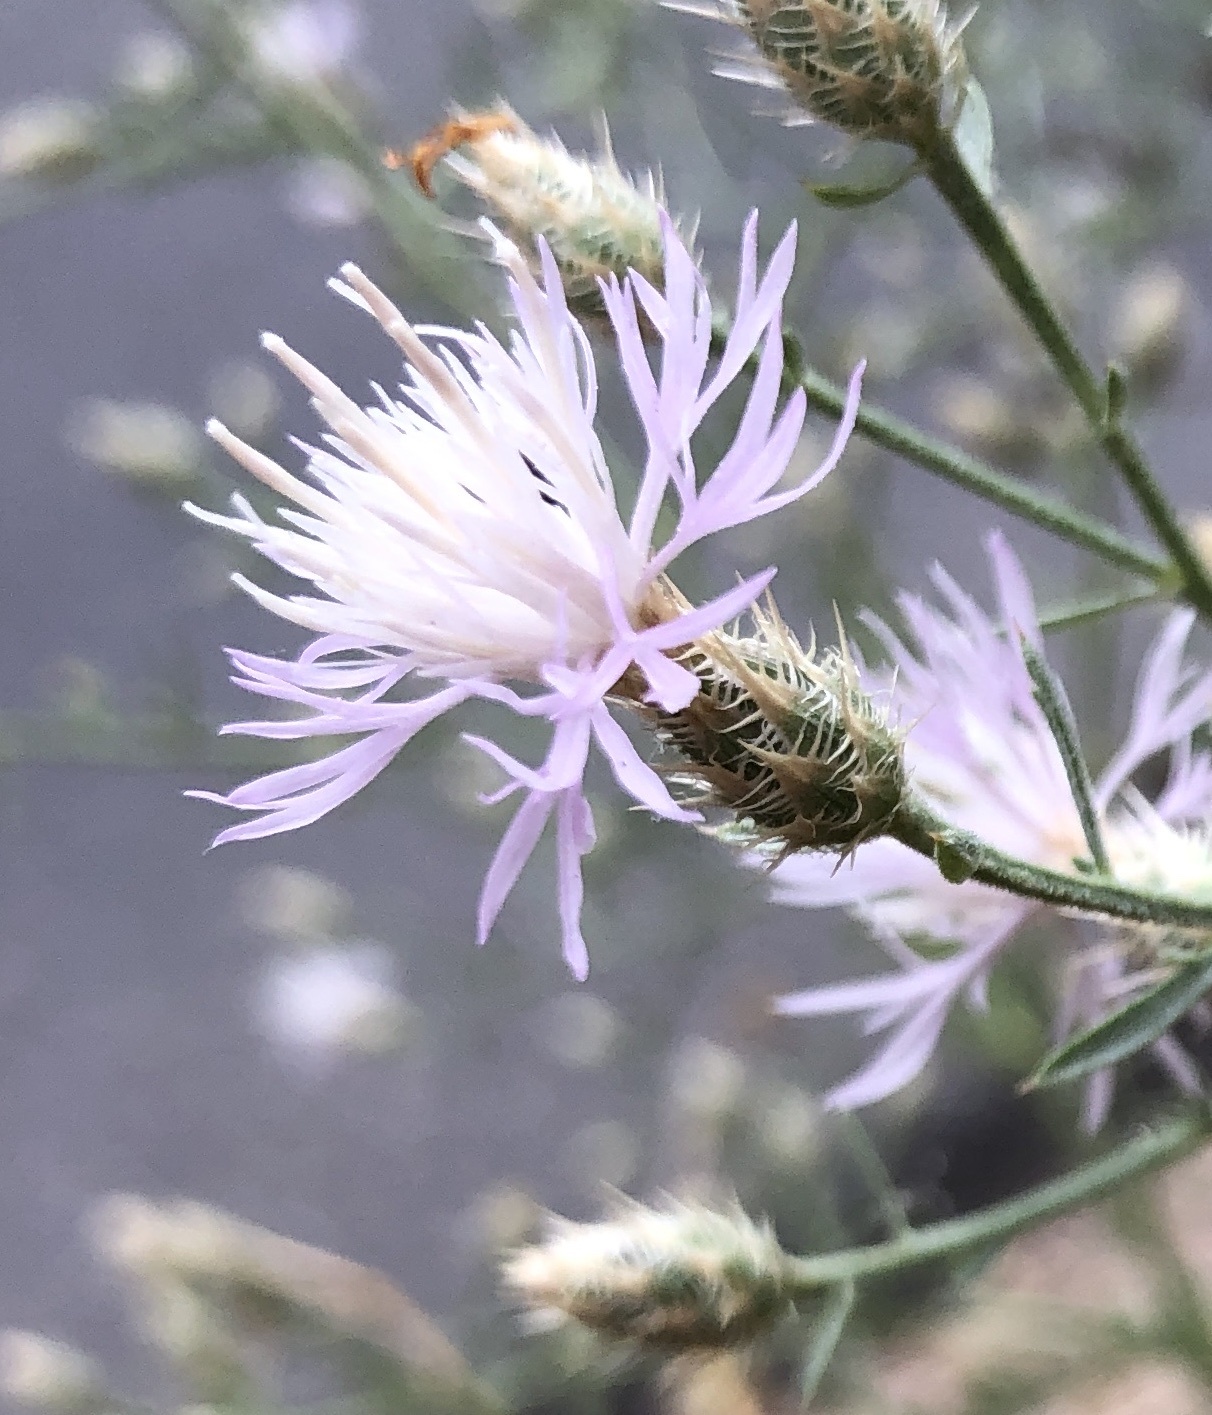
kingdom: Plantae
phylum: Tracheophyta
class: Magnoliopsida
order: Asterales
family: Asteraceae
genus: Centaurea
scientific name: Centaurea diffusa
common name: Diffuse knapweed
